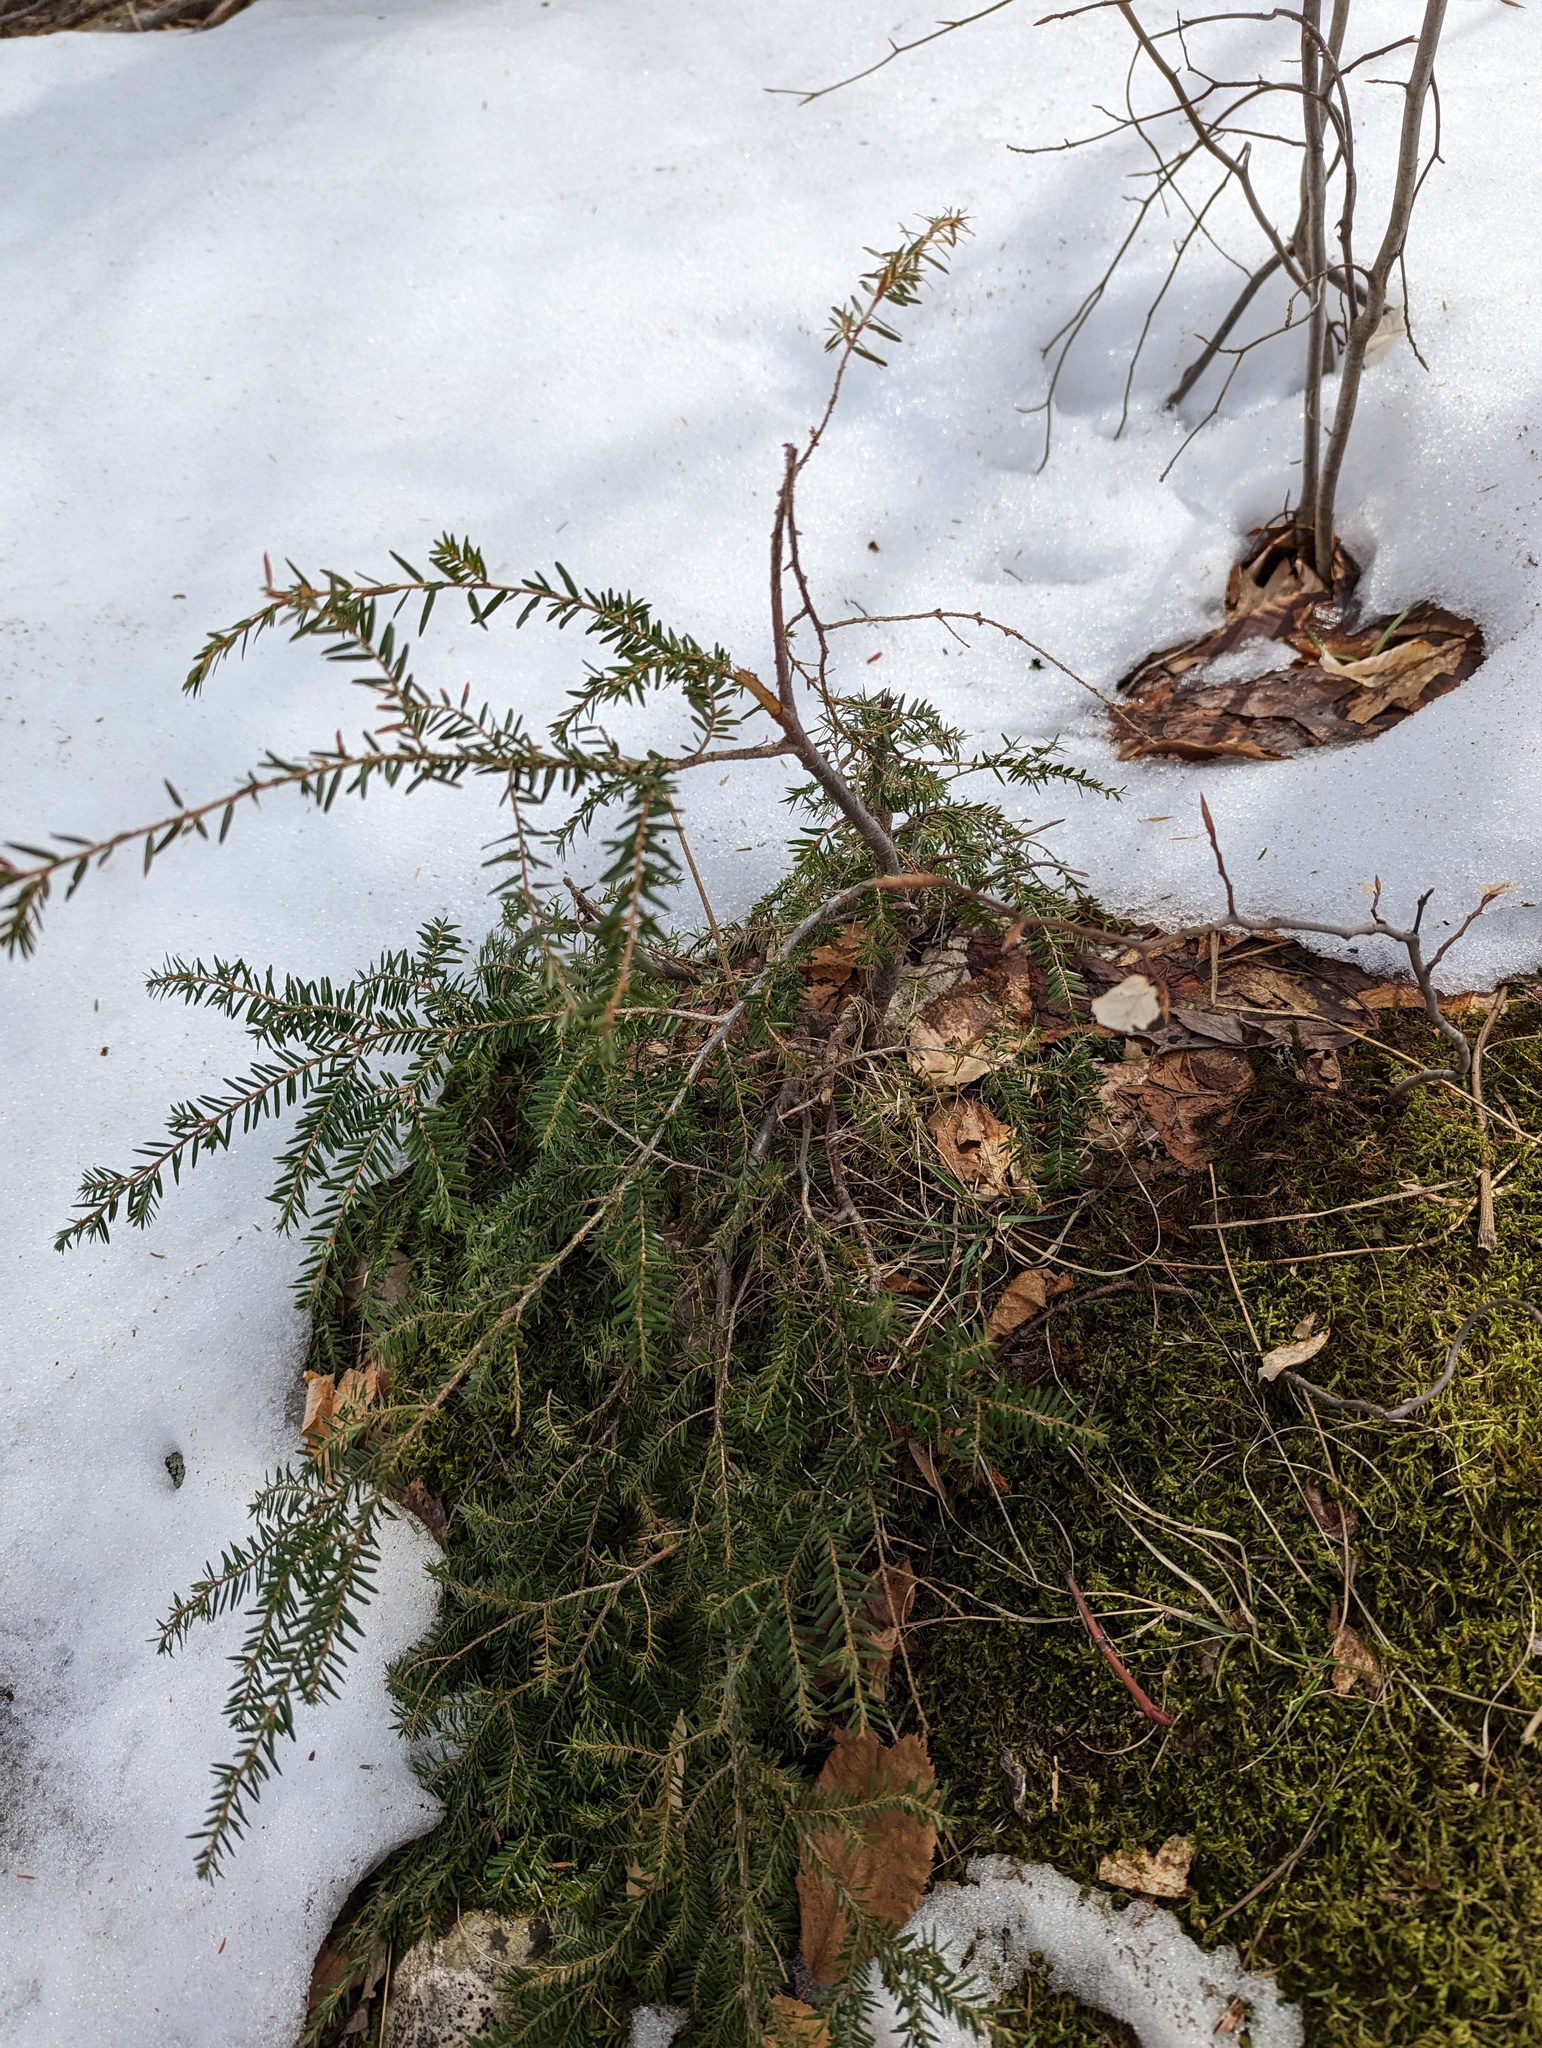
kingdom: Plantae
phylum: Tracheophyta
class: Pinopsida
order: Pinales
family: Pinaceae
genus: Tsuga
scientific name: Tsuga canadensis
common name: Eastern hemlock
